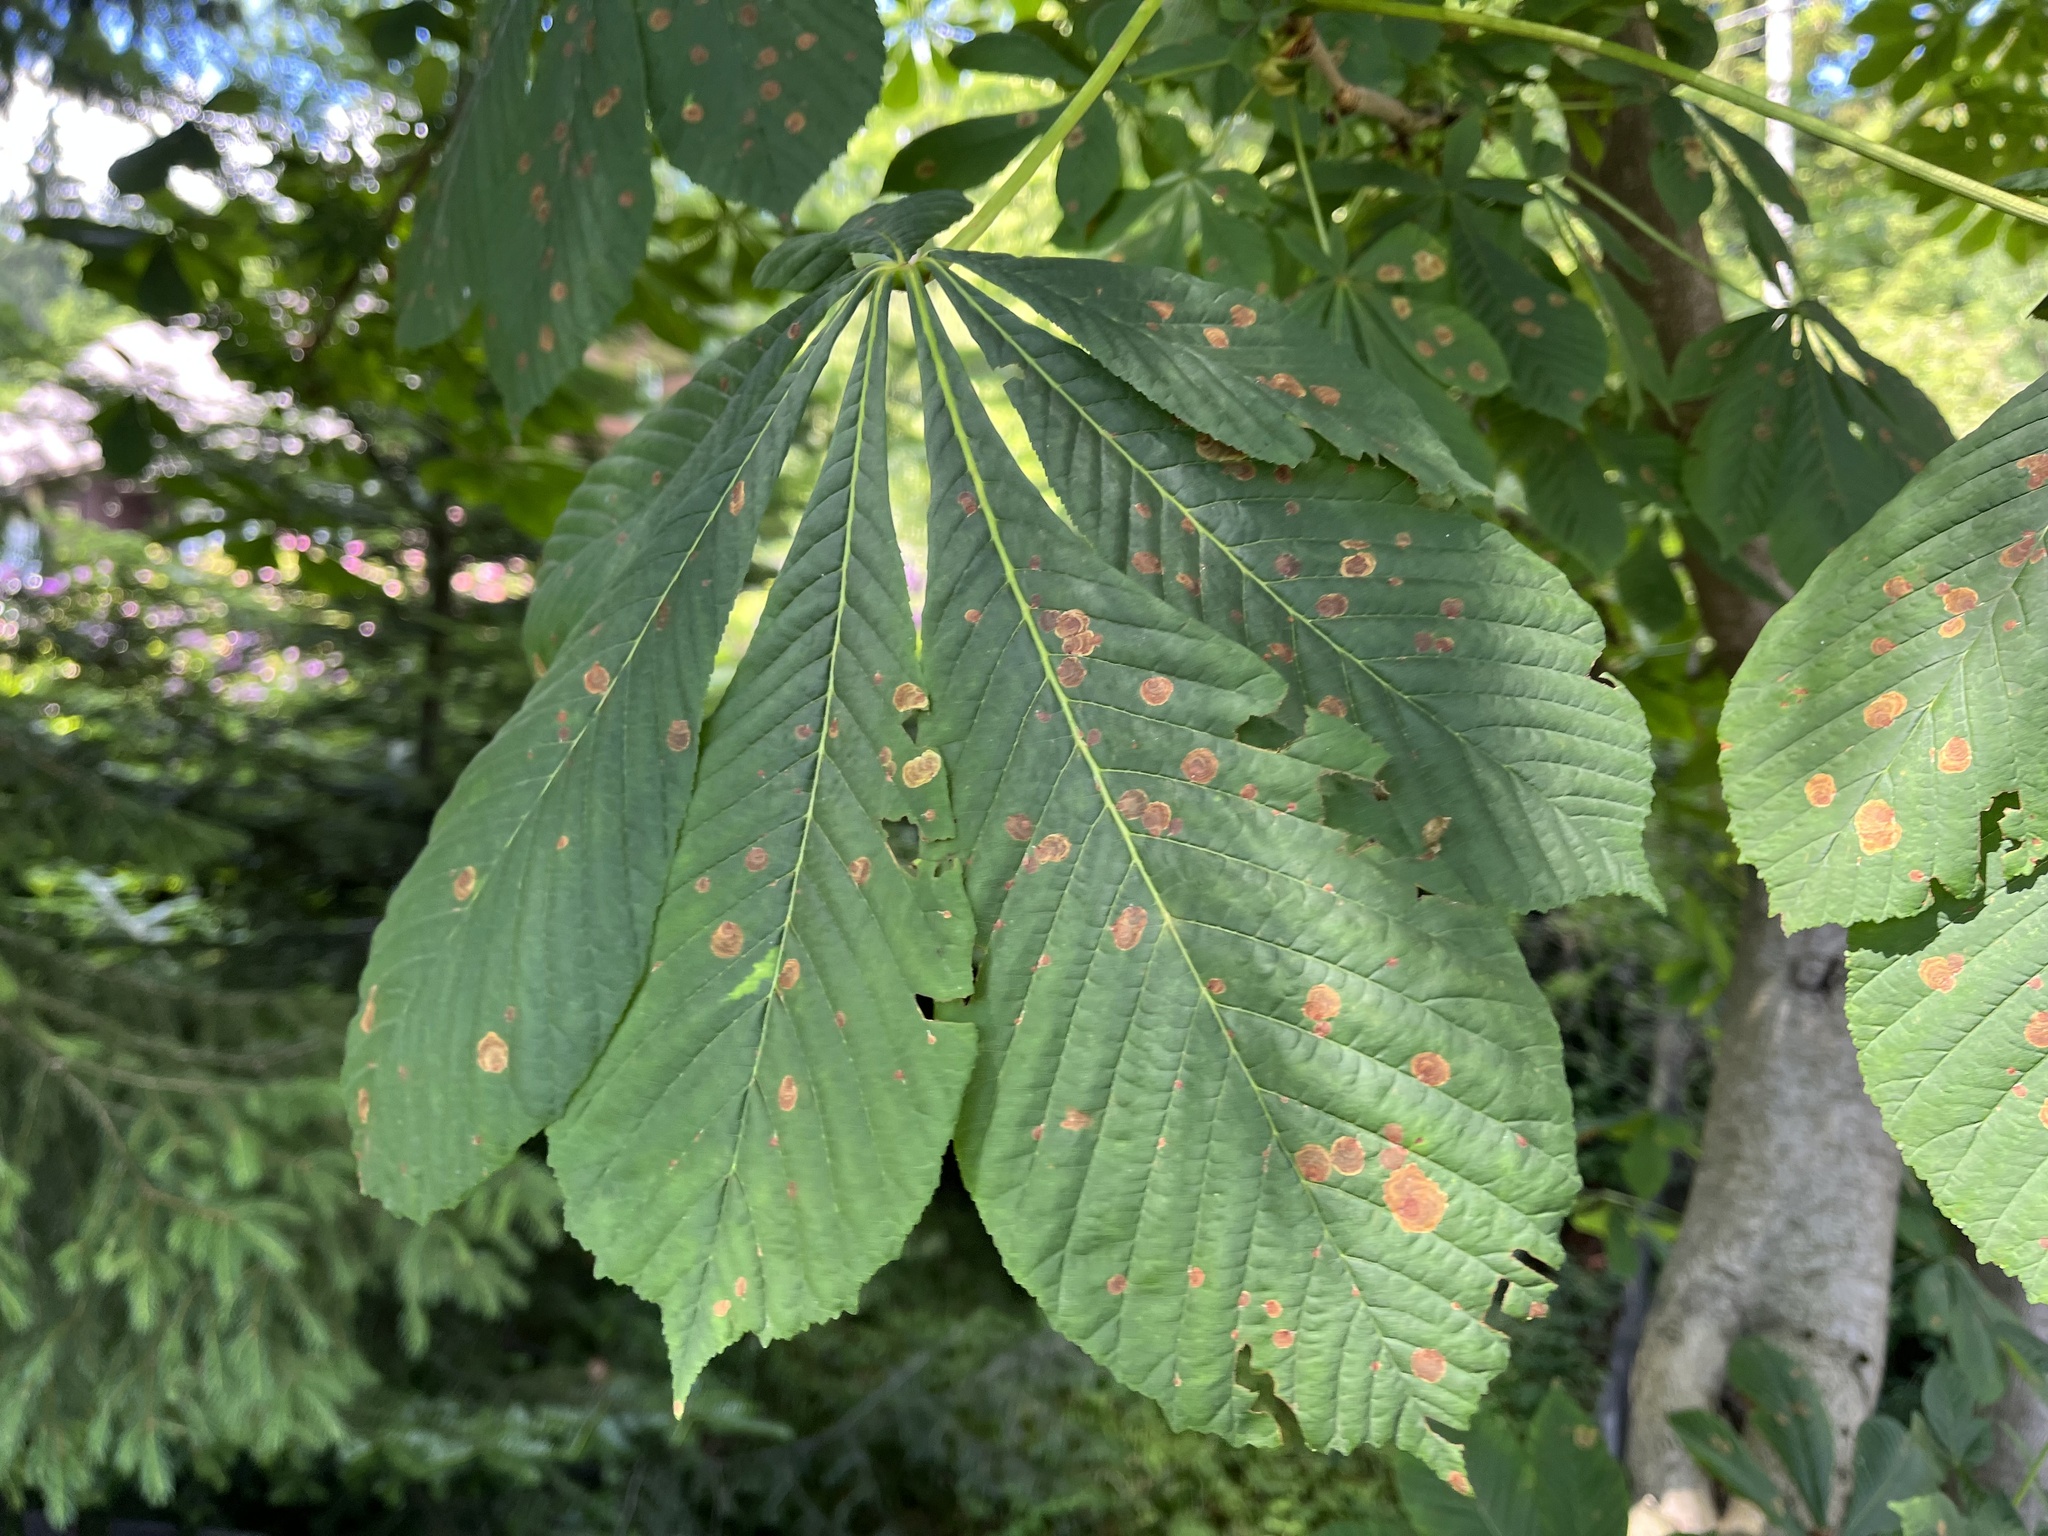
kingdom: Animalia
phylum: Arthropoda
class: Insecta
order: Lepidoptera
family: Gracillariidae
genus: Cameraria
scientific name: Cameraria ohridella
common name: Horse-chestnut leaf-miner
